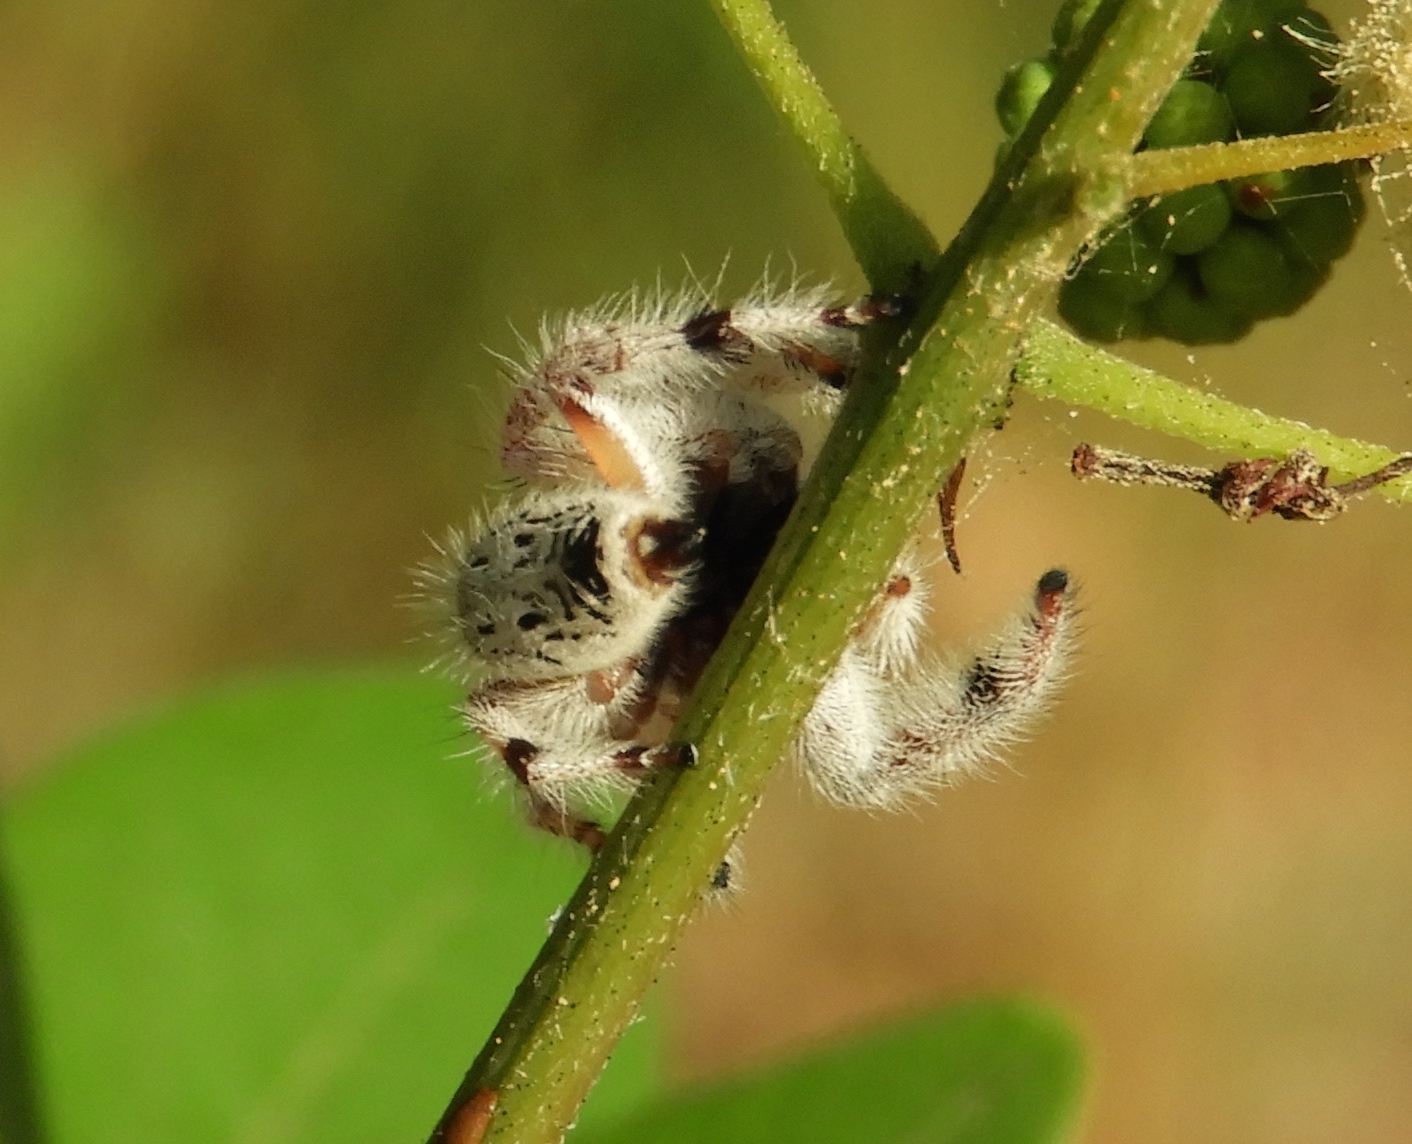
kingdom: Animalia
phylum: Arthropoda
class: Arachnida
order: Araneae
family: Salticidae
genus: Paraphidippus
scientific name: Paraphidippus fartilis
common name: Jumping spiders
